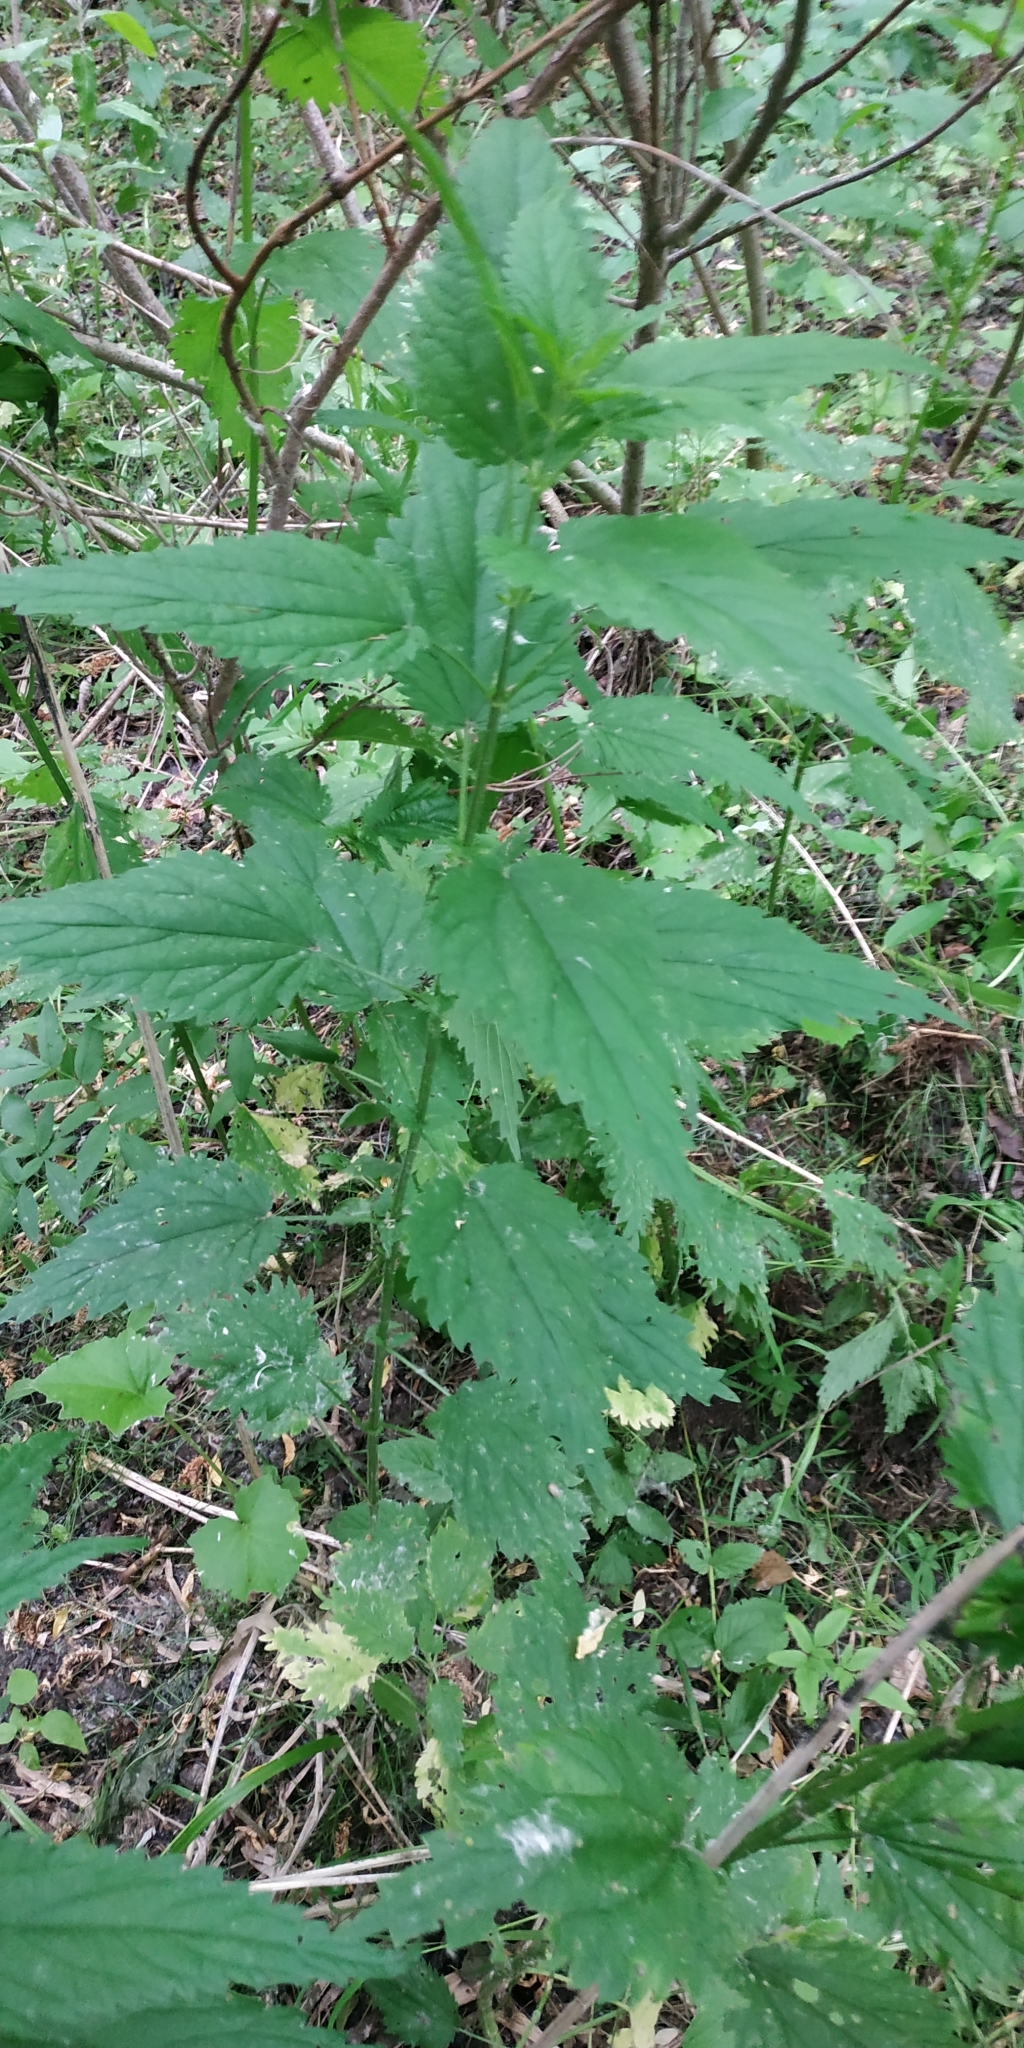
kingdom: Plantae
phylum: Tracheophyta
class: Magnoliopsida
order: Rosales
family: Urticaceae
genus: Urtica
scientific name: Urtica galeopsifolia
